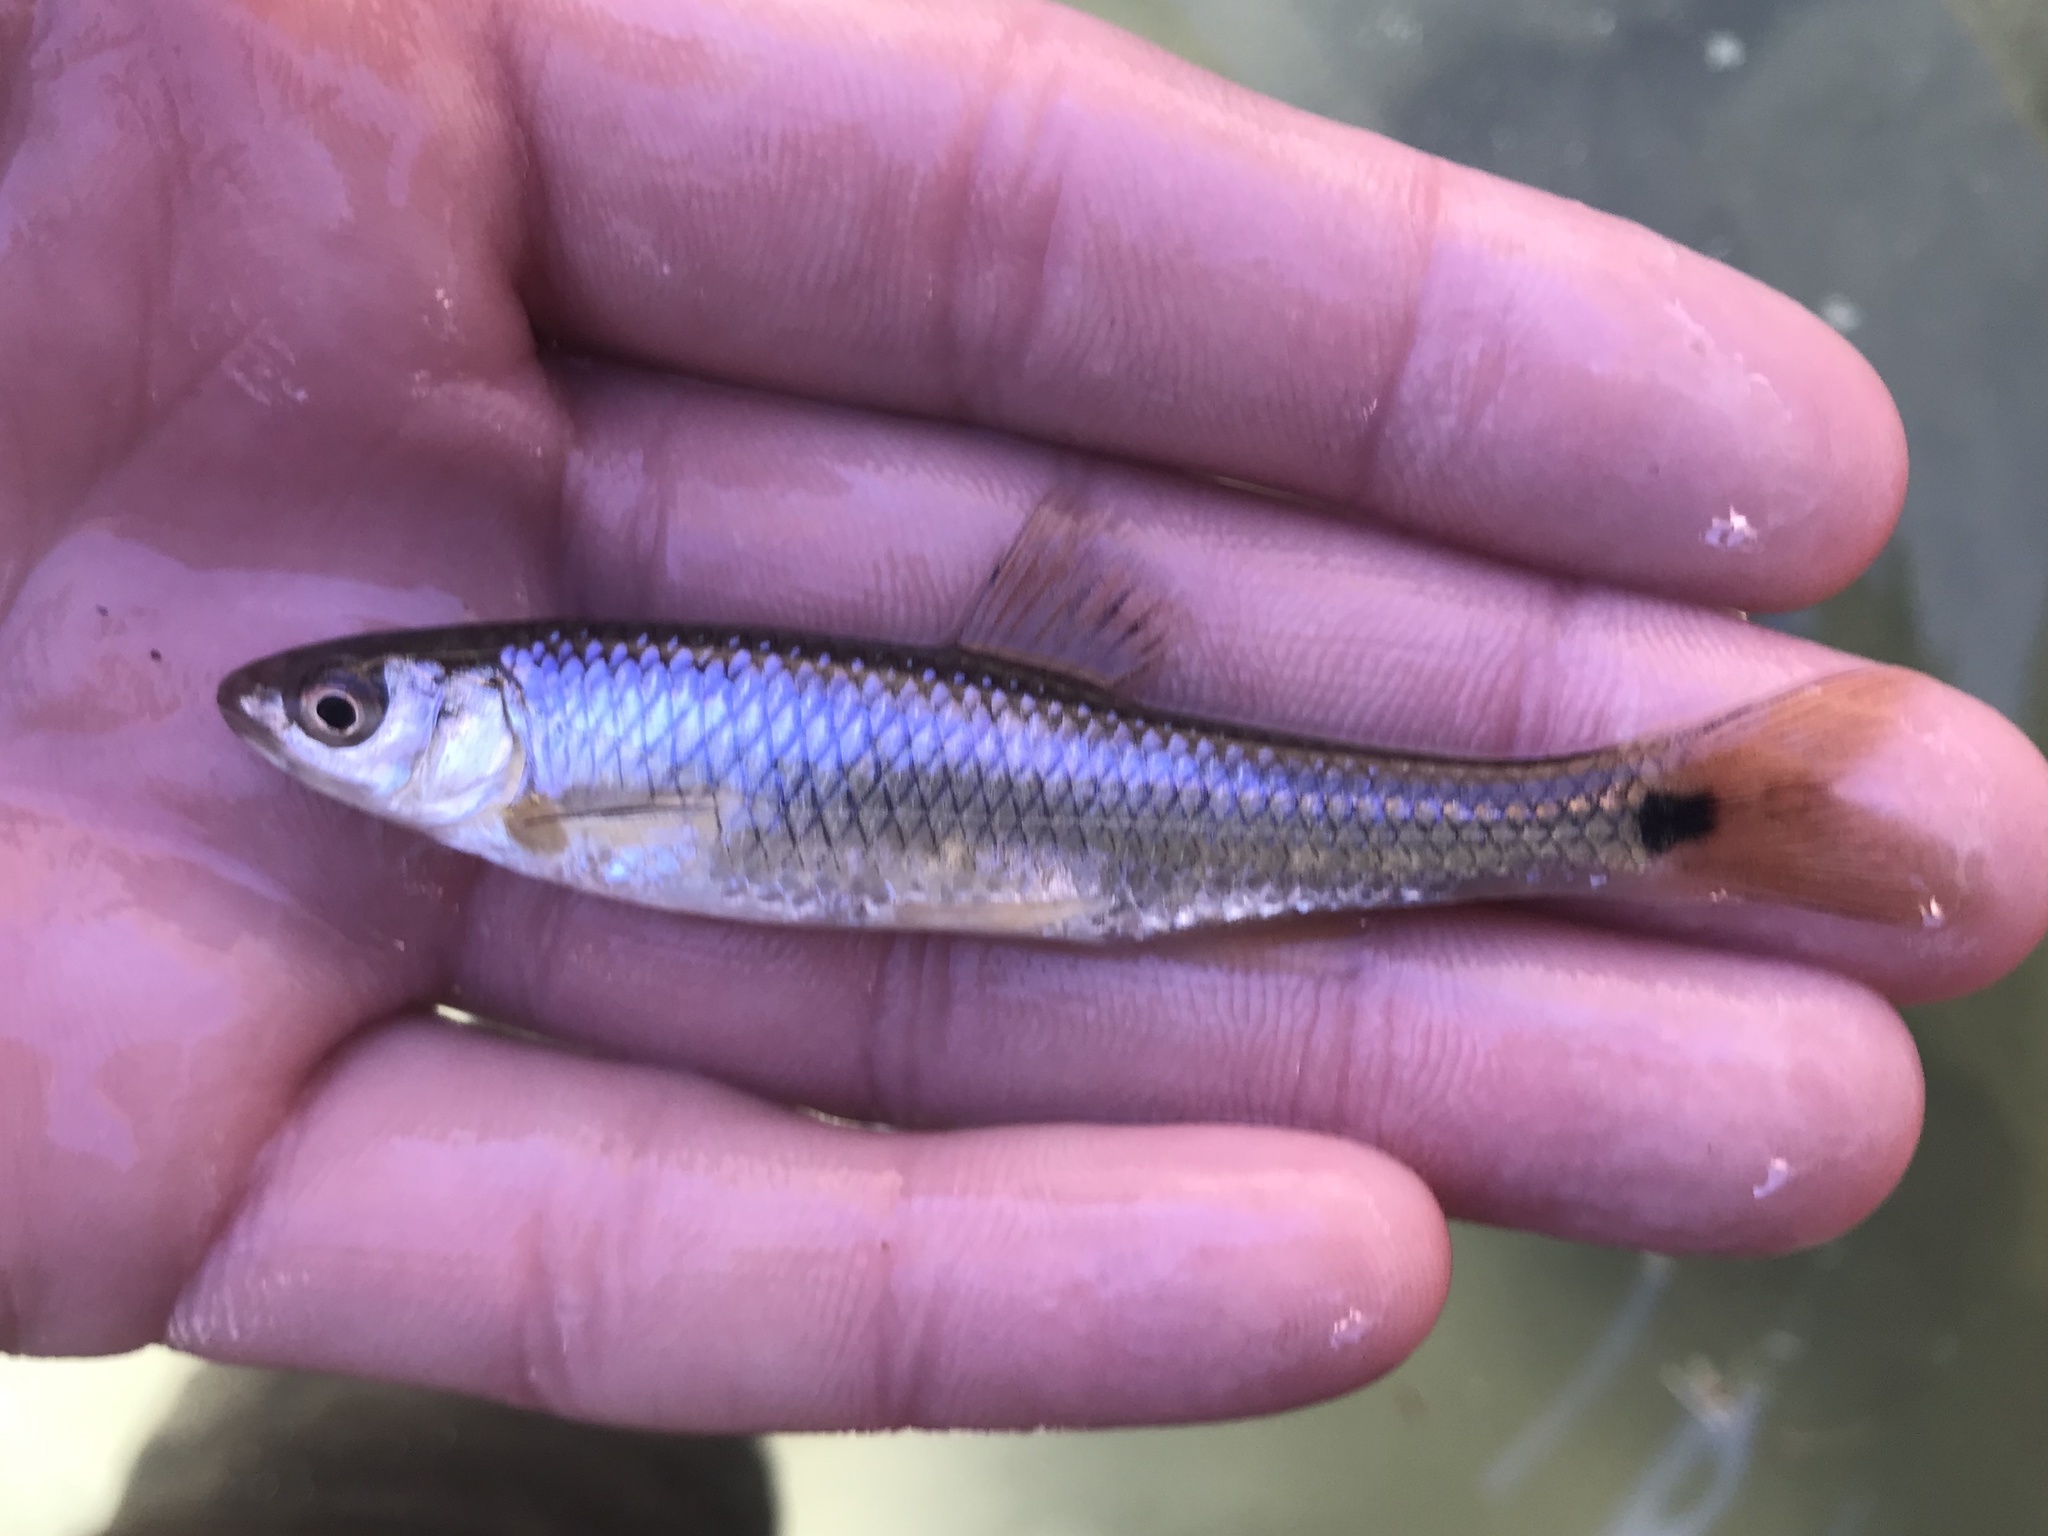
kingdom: Animalia
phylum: Chordata
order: Cypriniformes
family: Cyprinidae
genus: Cyprinella
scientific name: Cyprinella venusta
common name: Blacktail shiner
